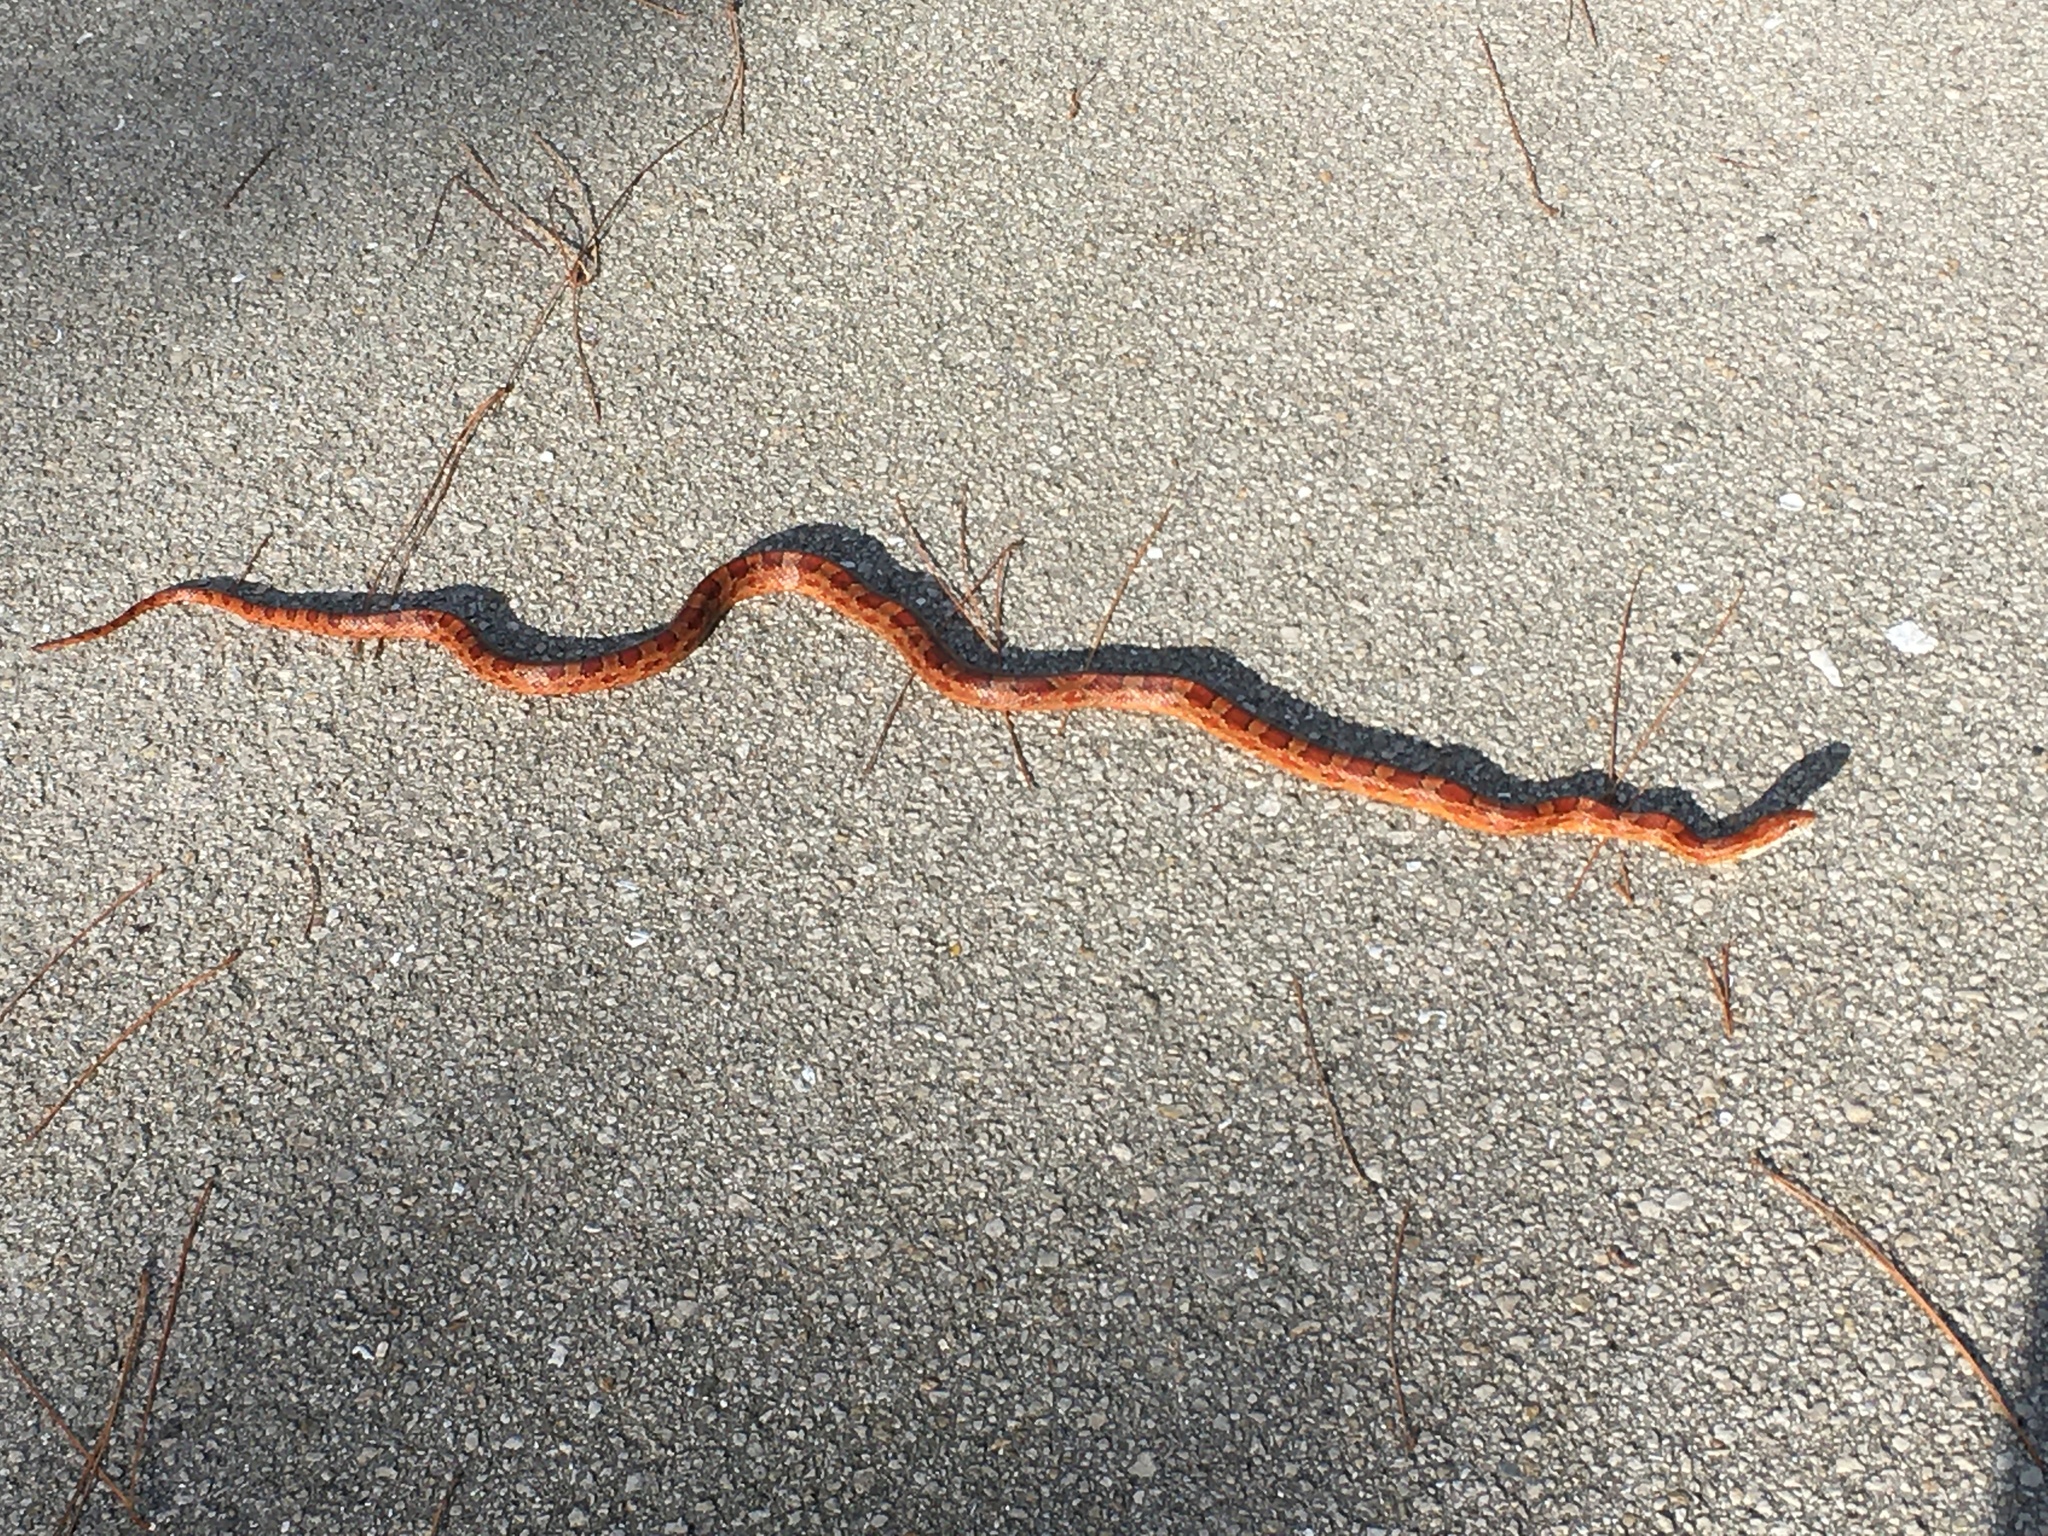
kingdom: Animalia
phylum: Chordata
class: Squamata
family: Colubridae
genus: Pantherophis
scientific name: Pantherophis guttatus
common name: Red cornsnake
